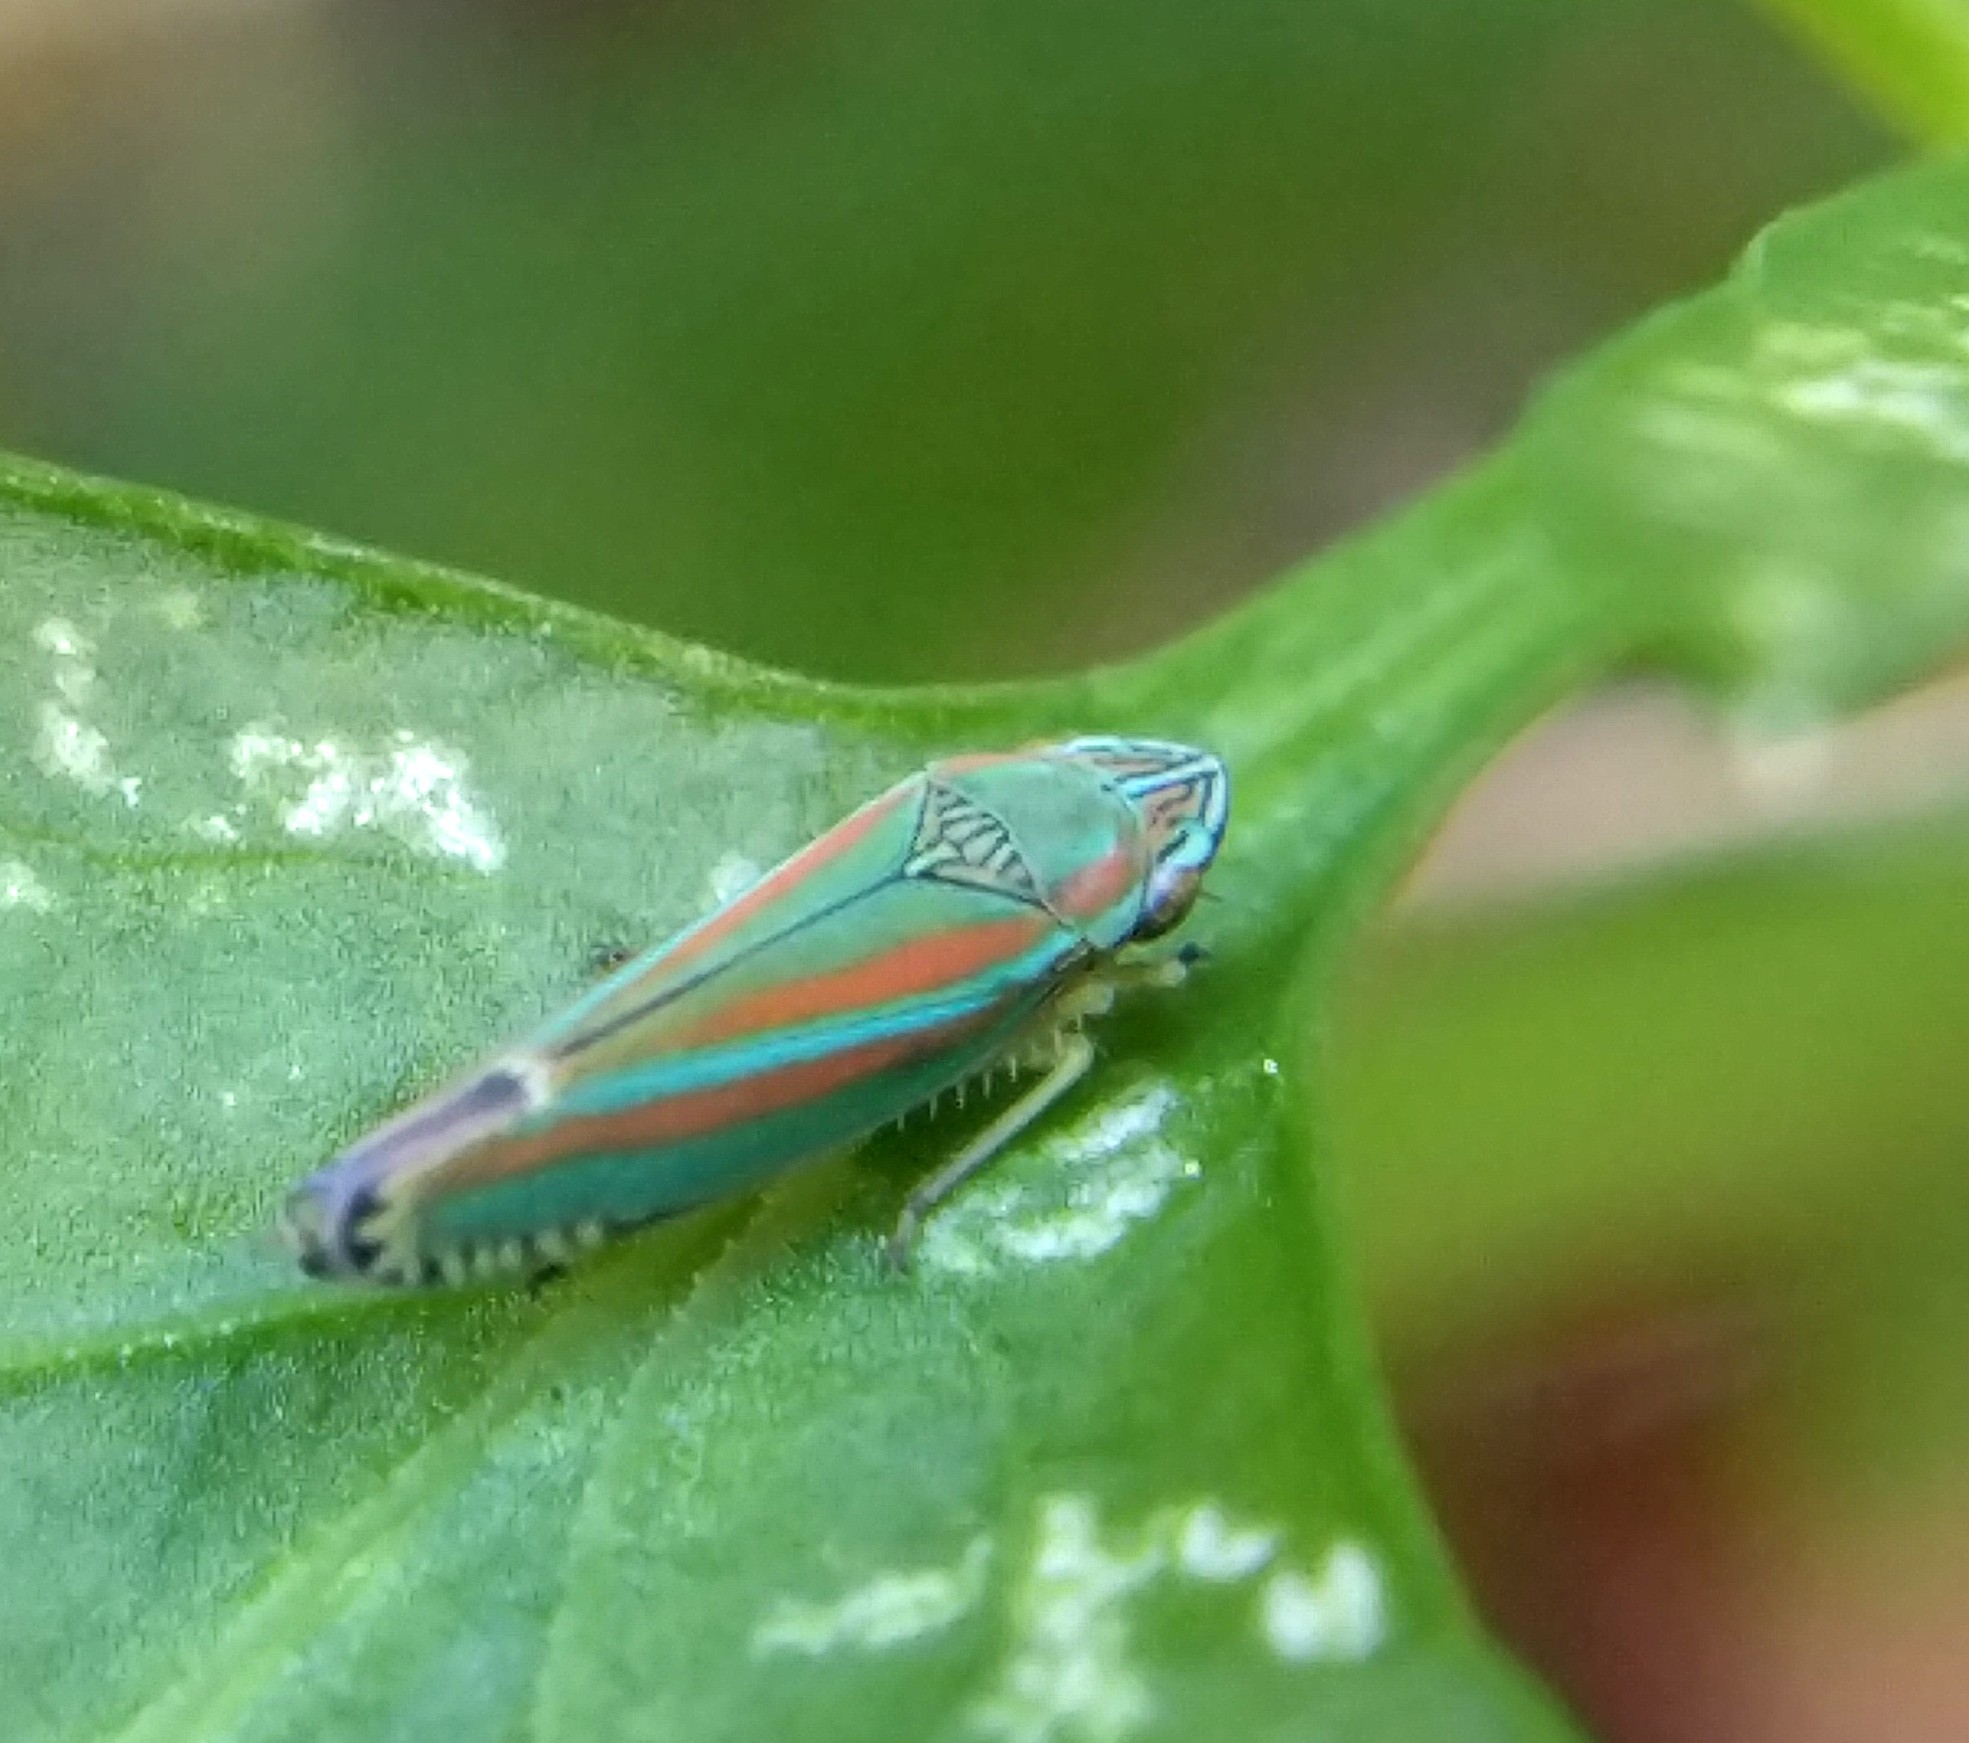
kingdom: Animalia
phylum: Arthropoda
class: Insecta
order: Hemiptera
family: Cicadellidae
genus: Graphocephala
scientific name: Graphocephala versuta
